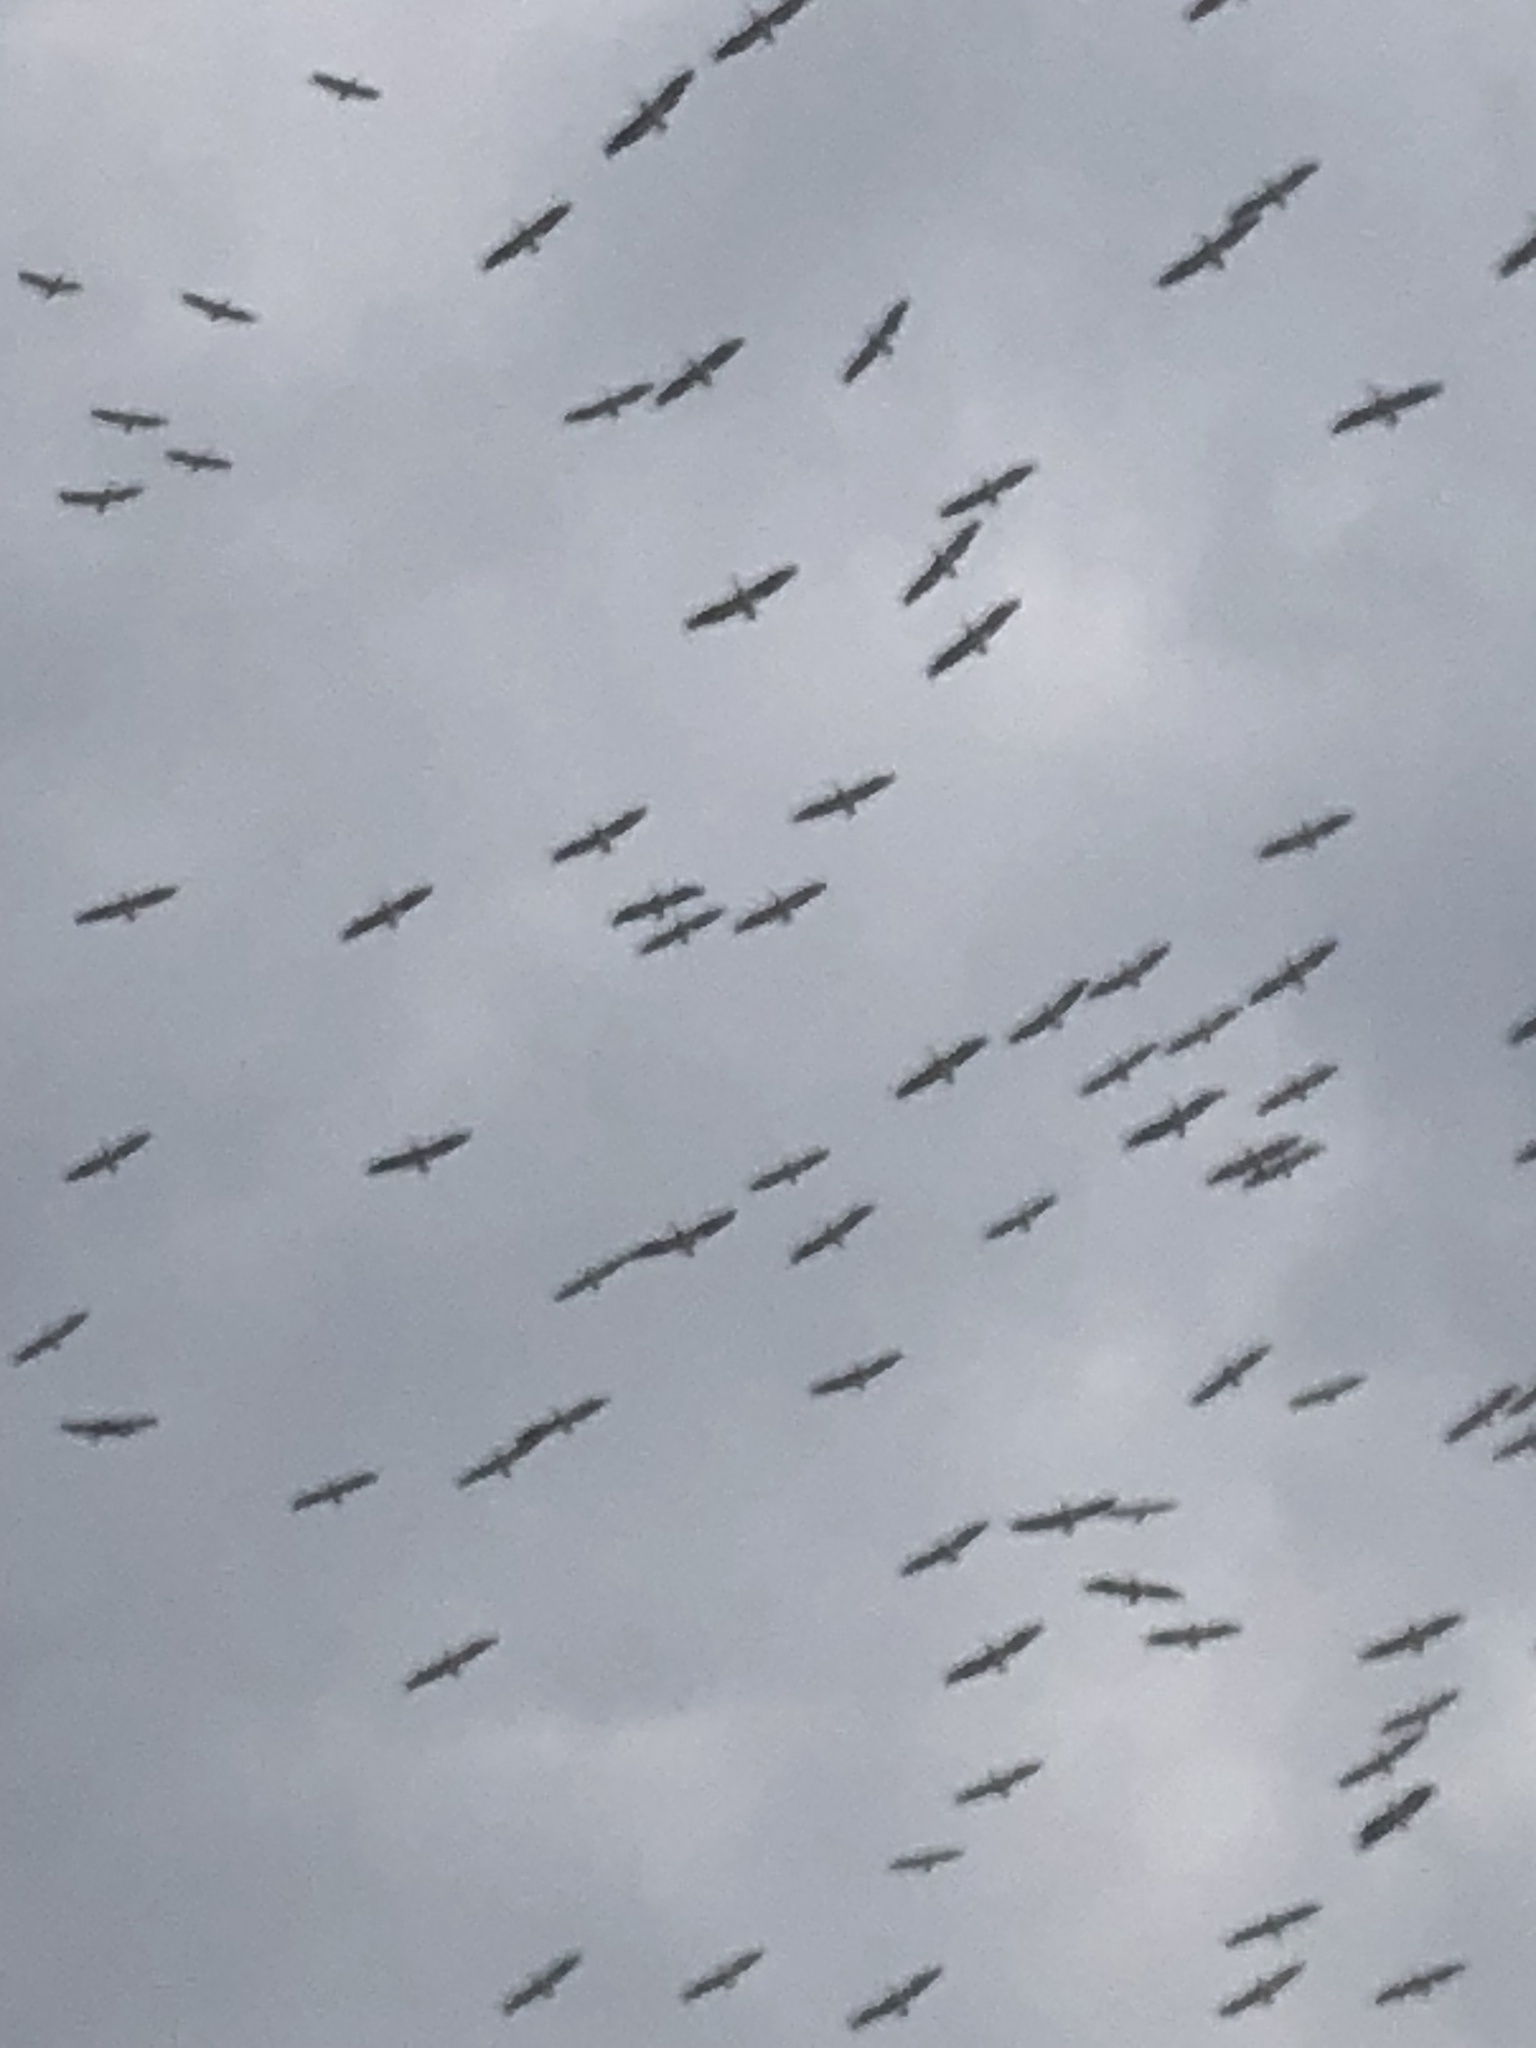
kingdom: Animalia
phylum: Chordata
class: Aves
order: Pelecaniformes
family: Pelecanidae
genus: Pelecanus
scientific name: Pelecanus erythrorhynchos
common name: American white pelican
